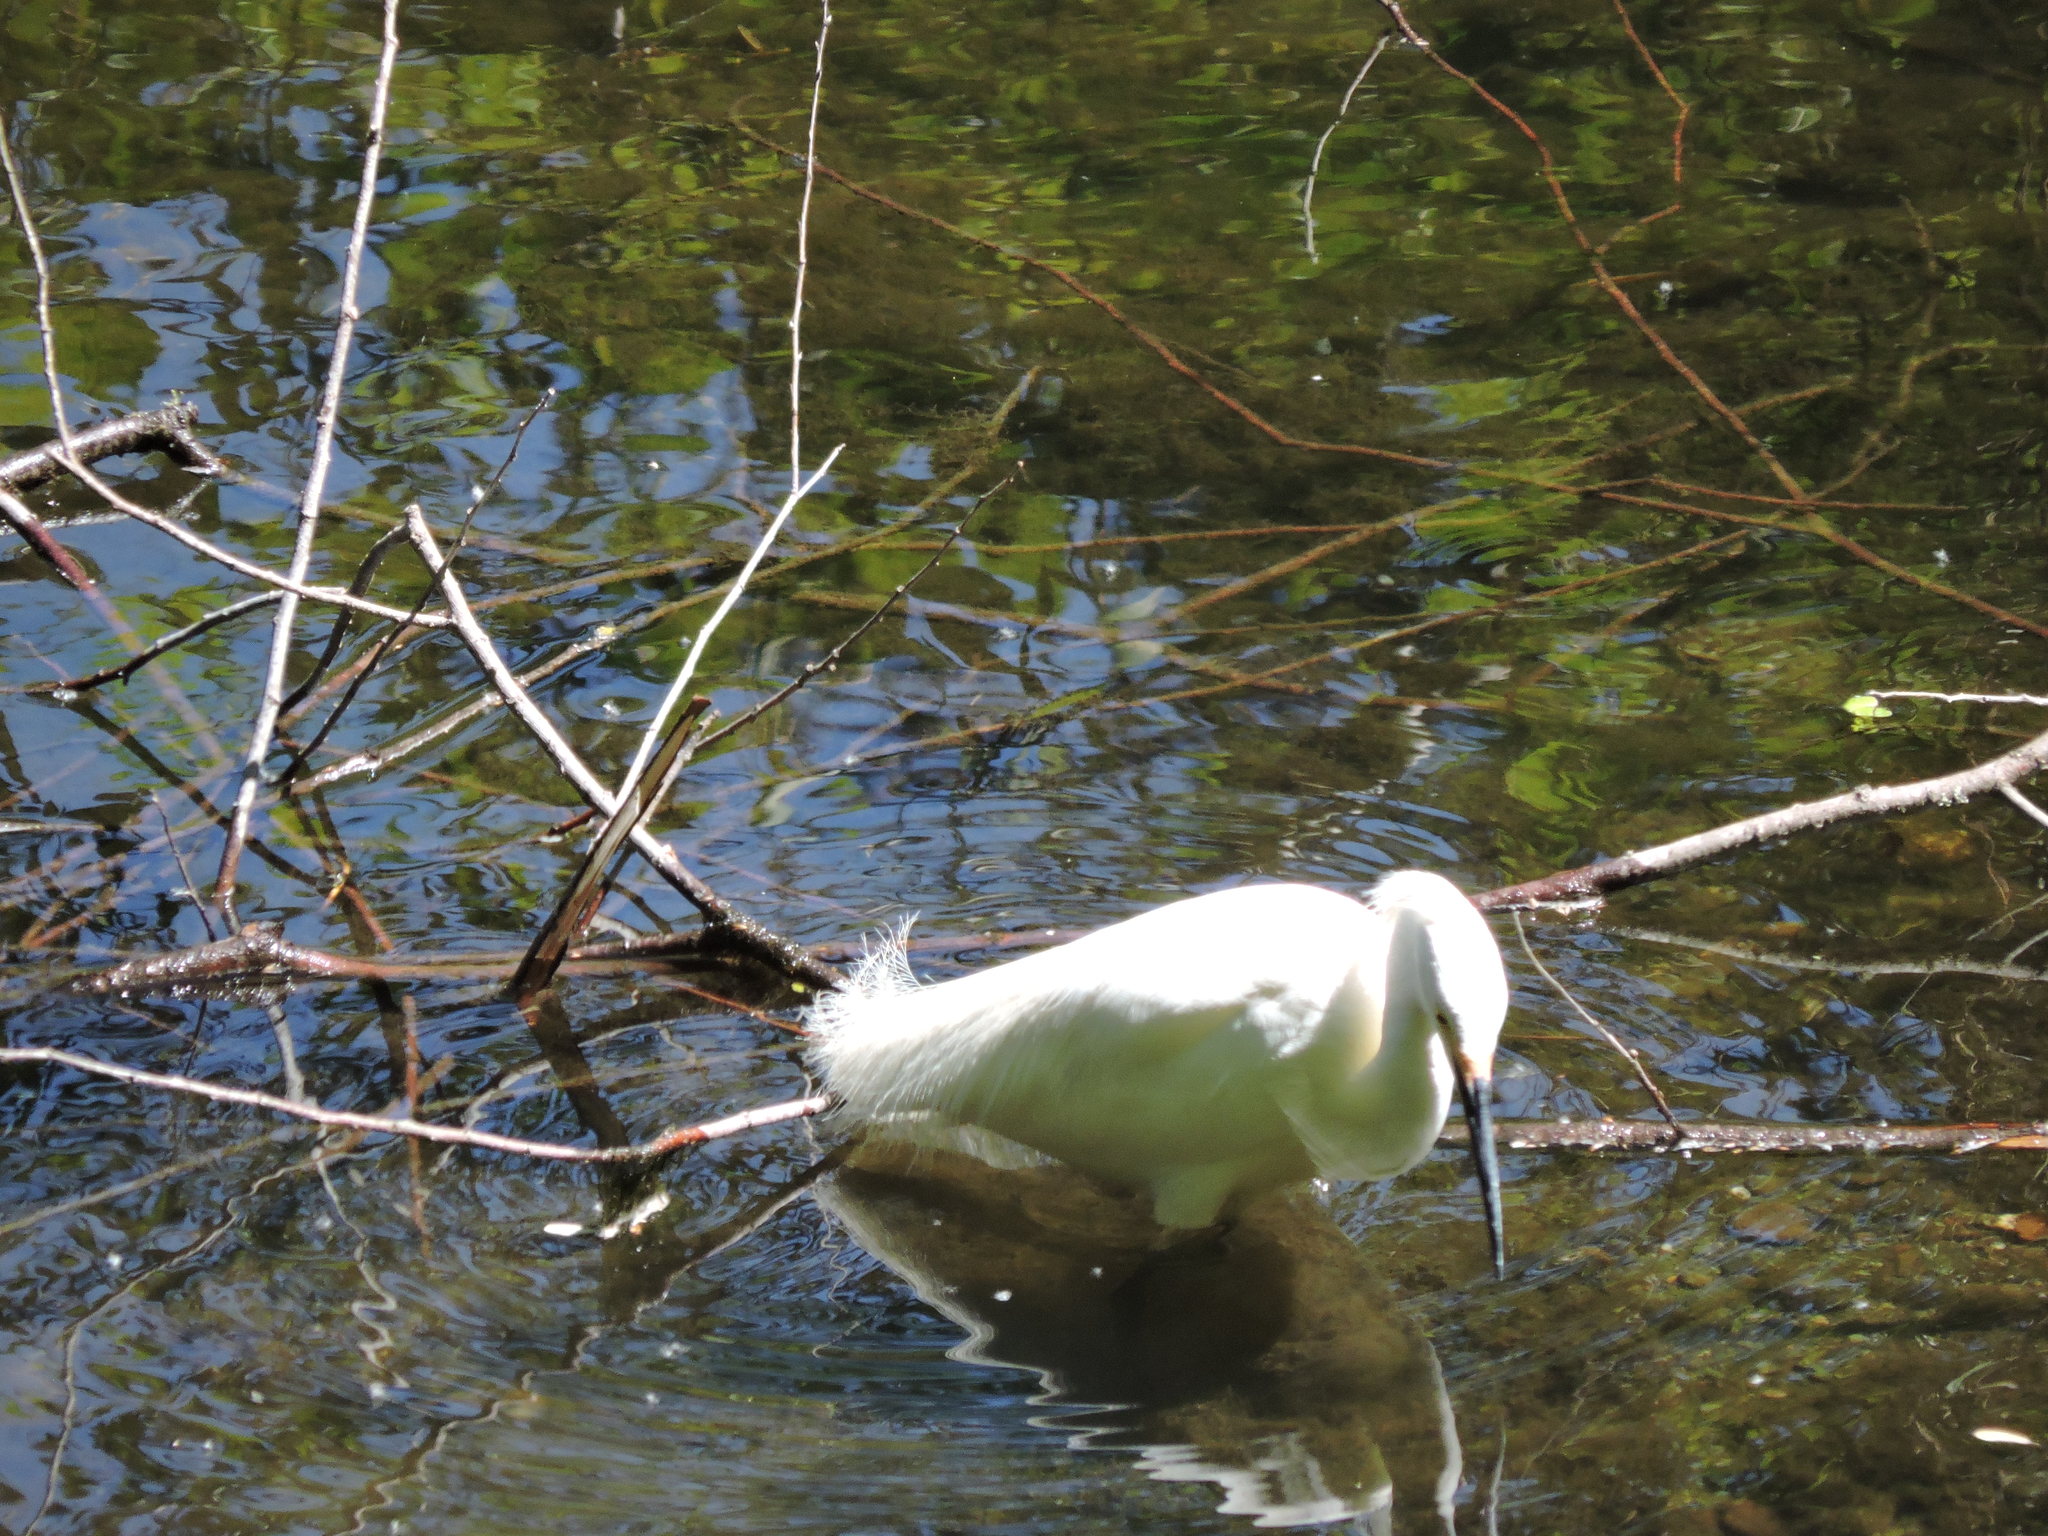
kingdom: Animalia
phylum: Chordata
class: Aves
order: Pelecaniformes
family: Ardeidae
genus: Egretta
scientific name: Egretta thula
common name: Snowy egret
